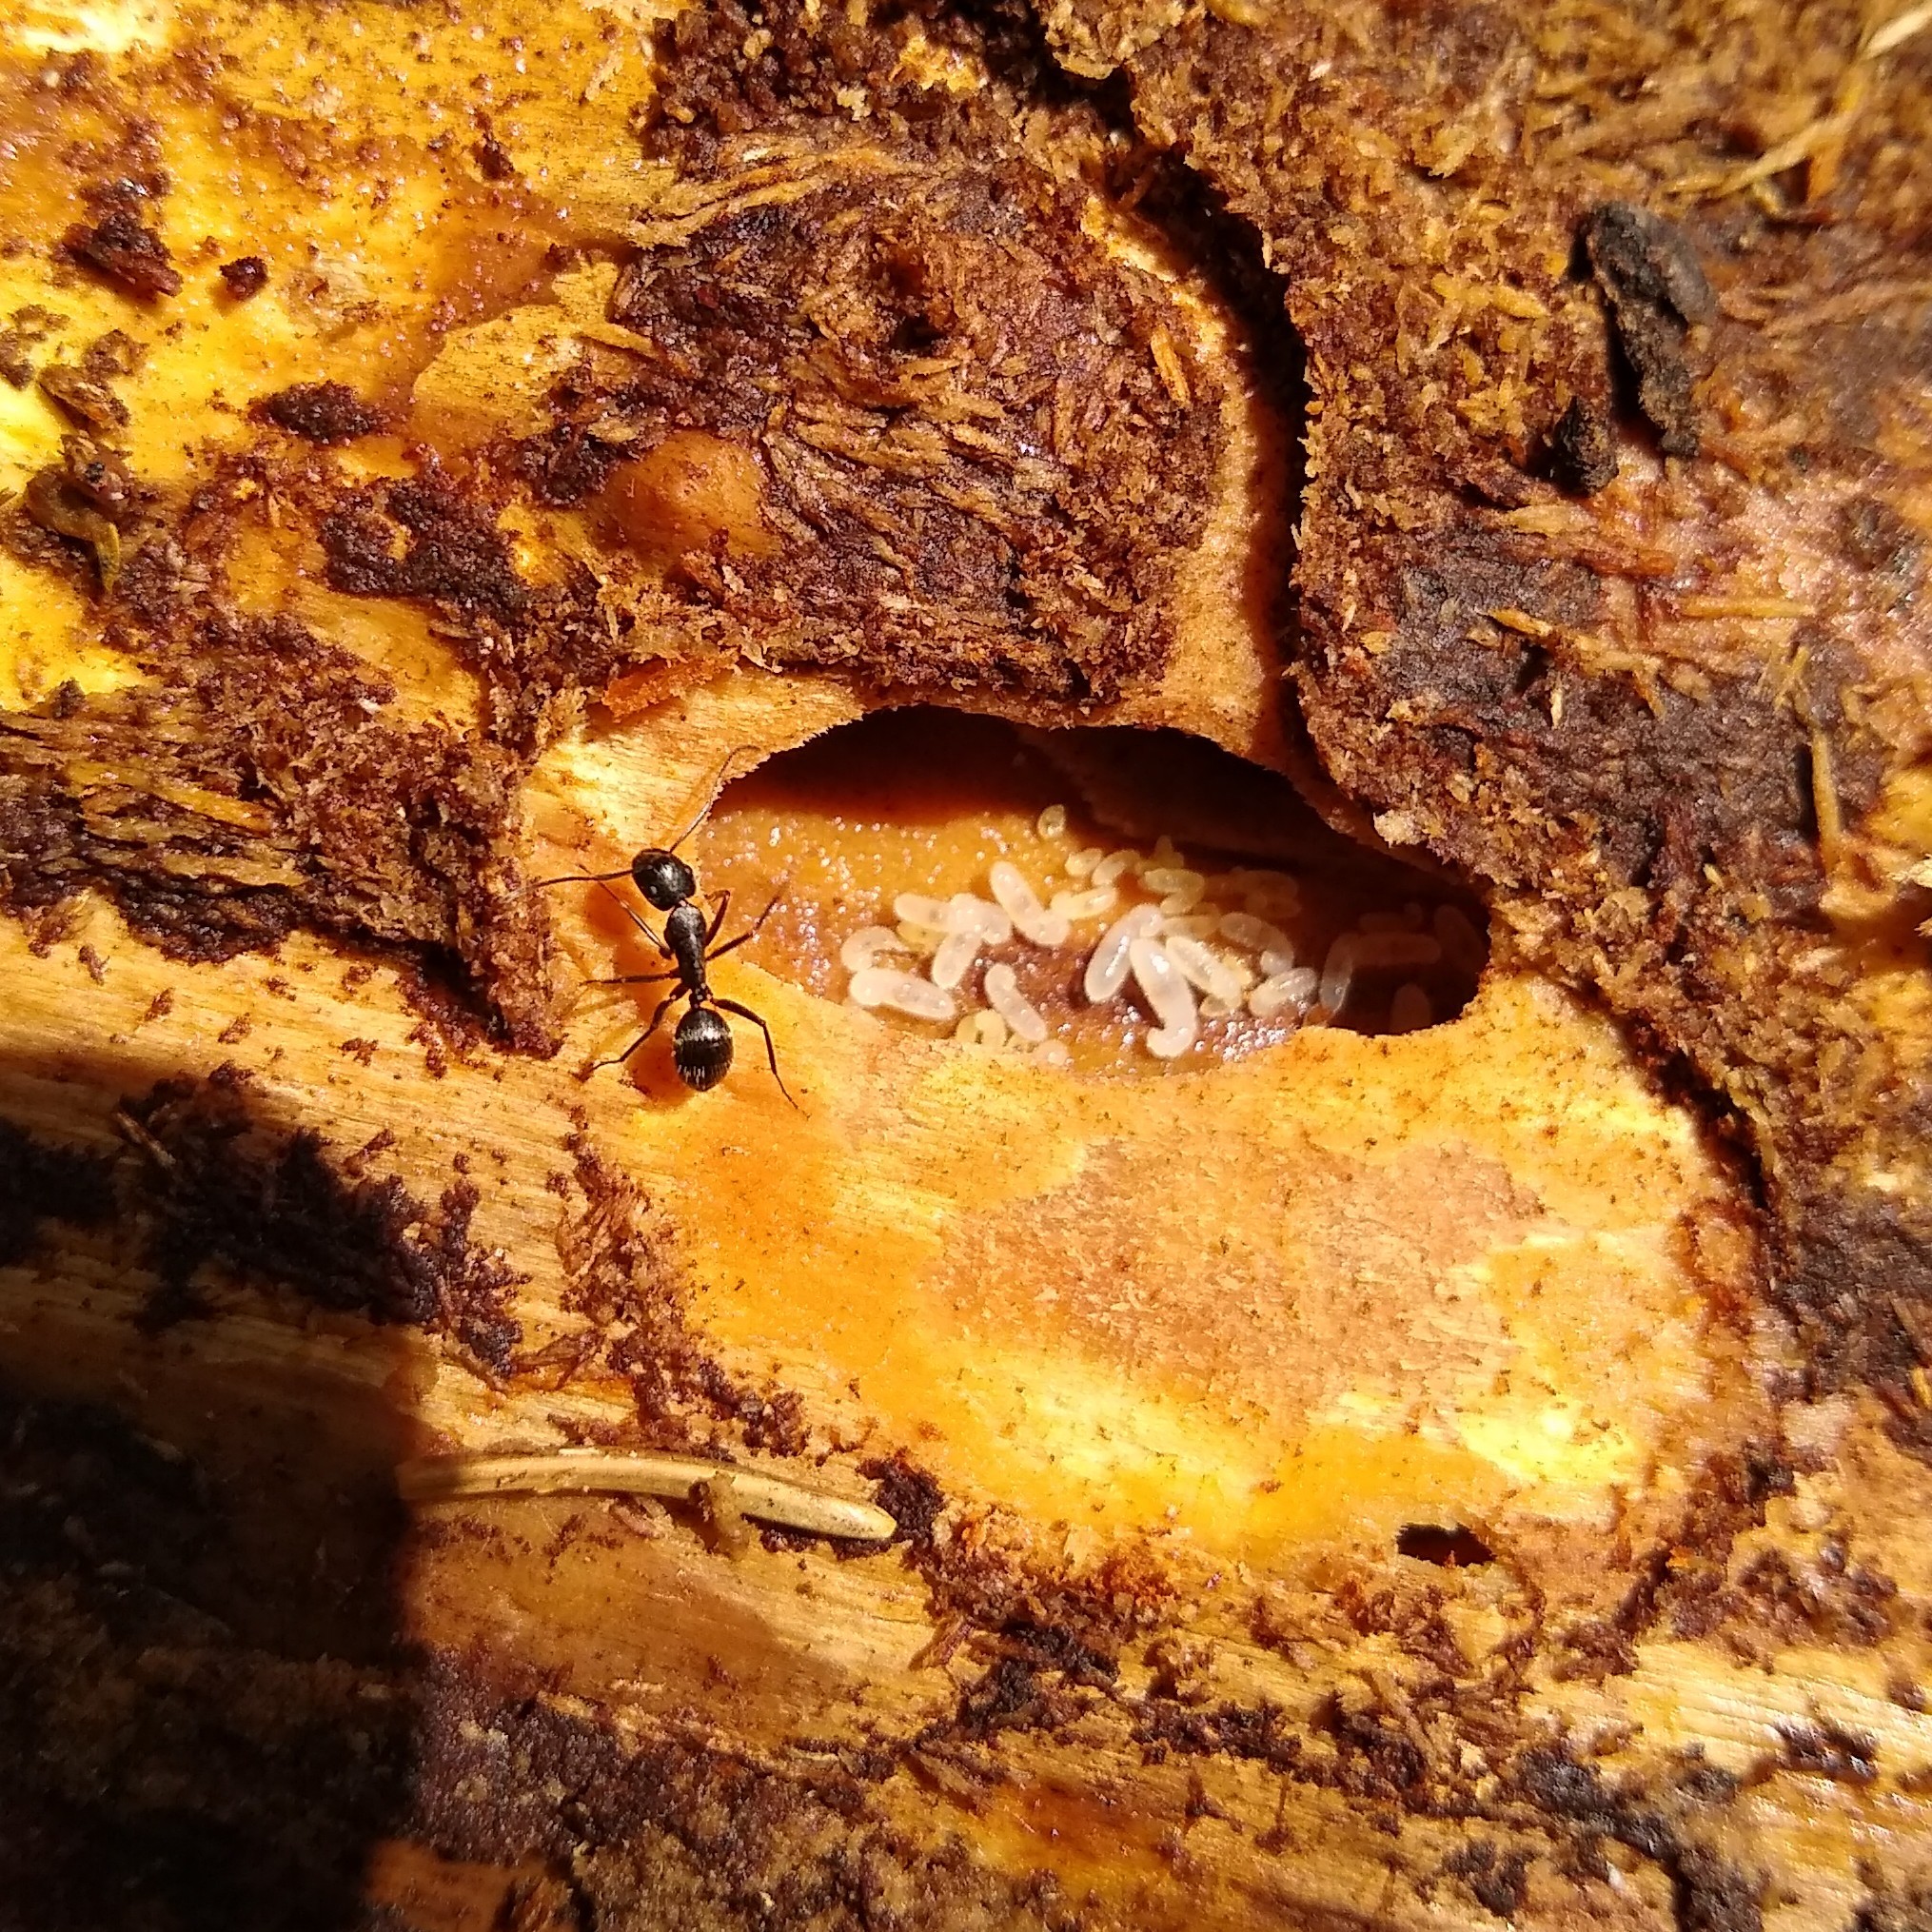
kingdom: Animalia
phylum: Arthropoda
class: Insecta
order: Hymenoptera
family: Formicidae
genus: Camponotus
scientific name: Camponotus pennsylvanicus
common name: Black carpenter ant
